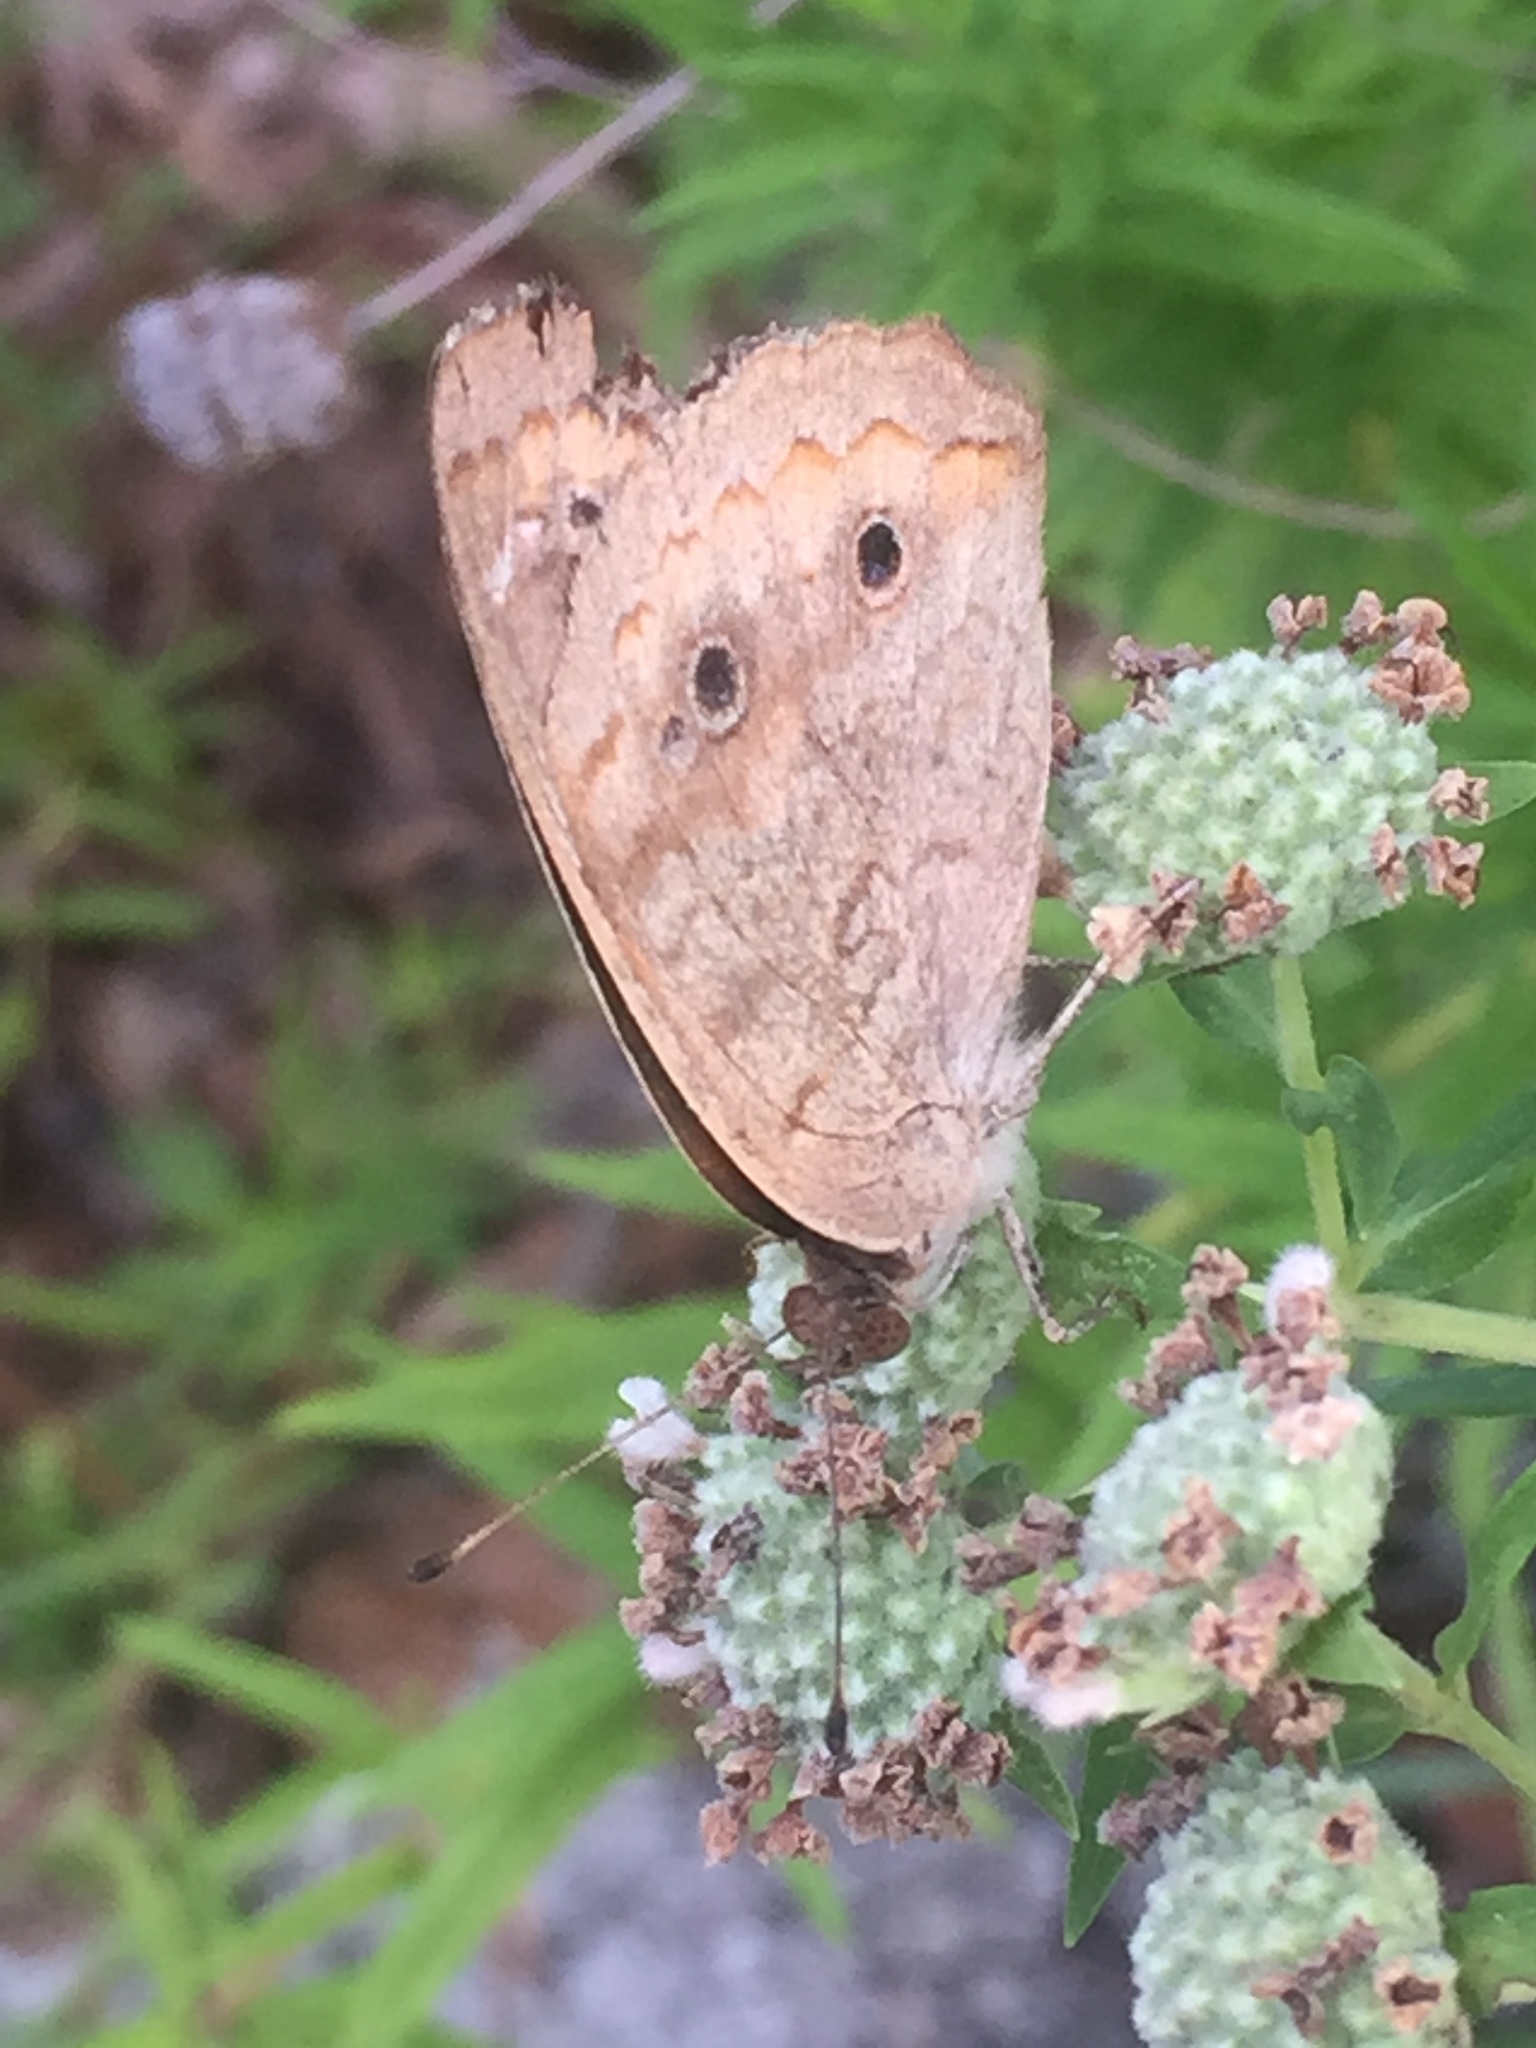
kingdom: Animalia
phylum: Arthropoda
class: Insecta
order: Lepidoptera
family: Nymphalidae
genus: Junonia
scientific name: Junonia coenia
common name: Common buckeye
